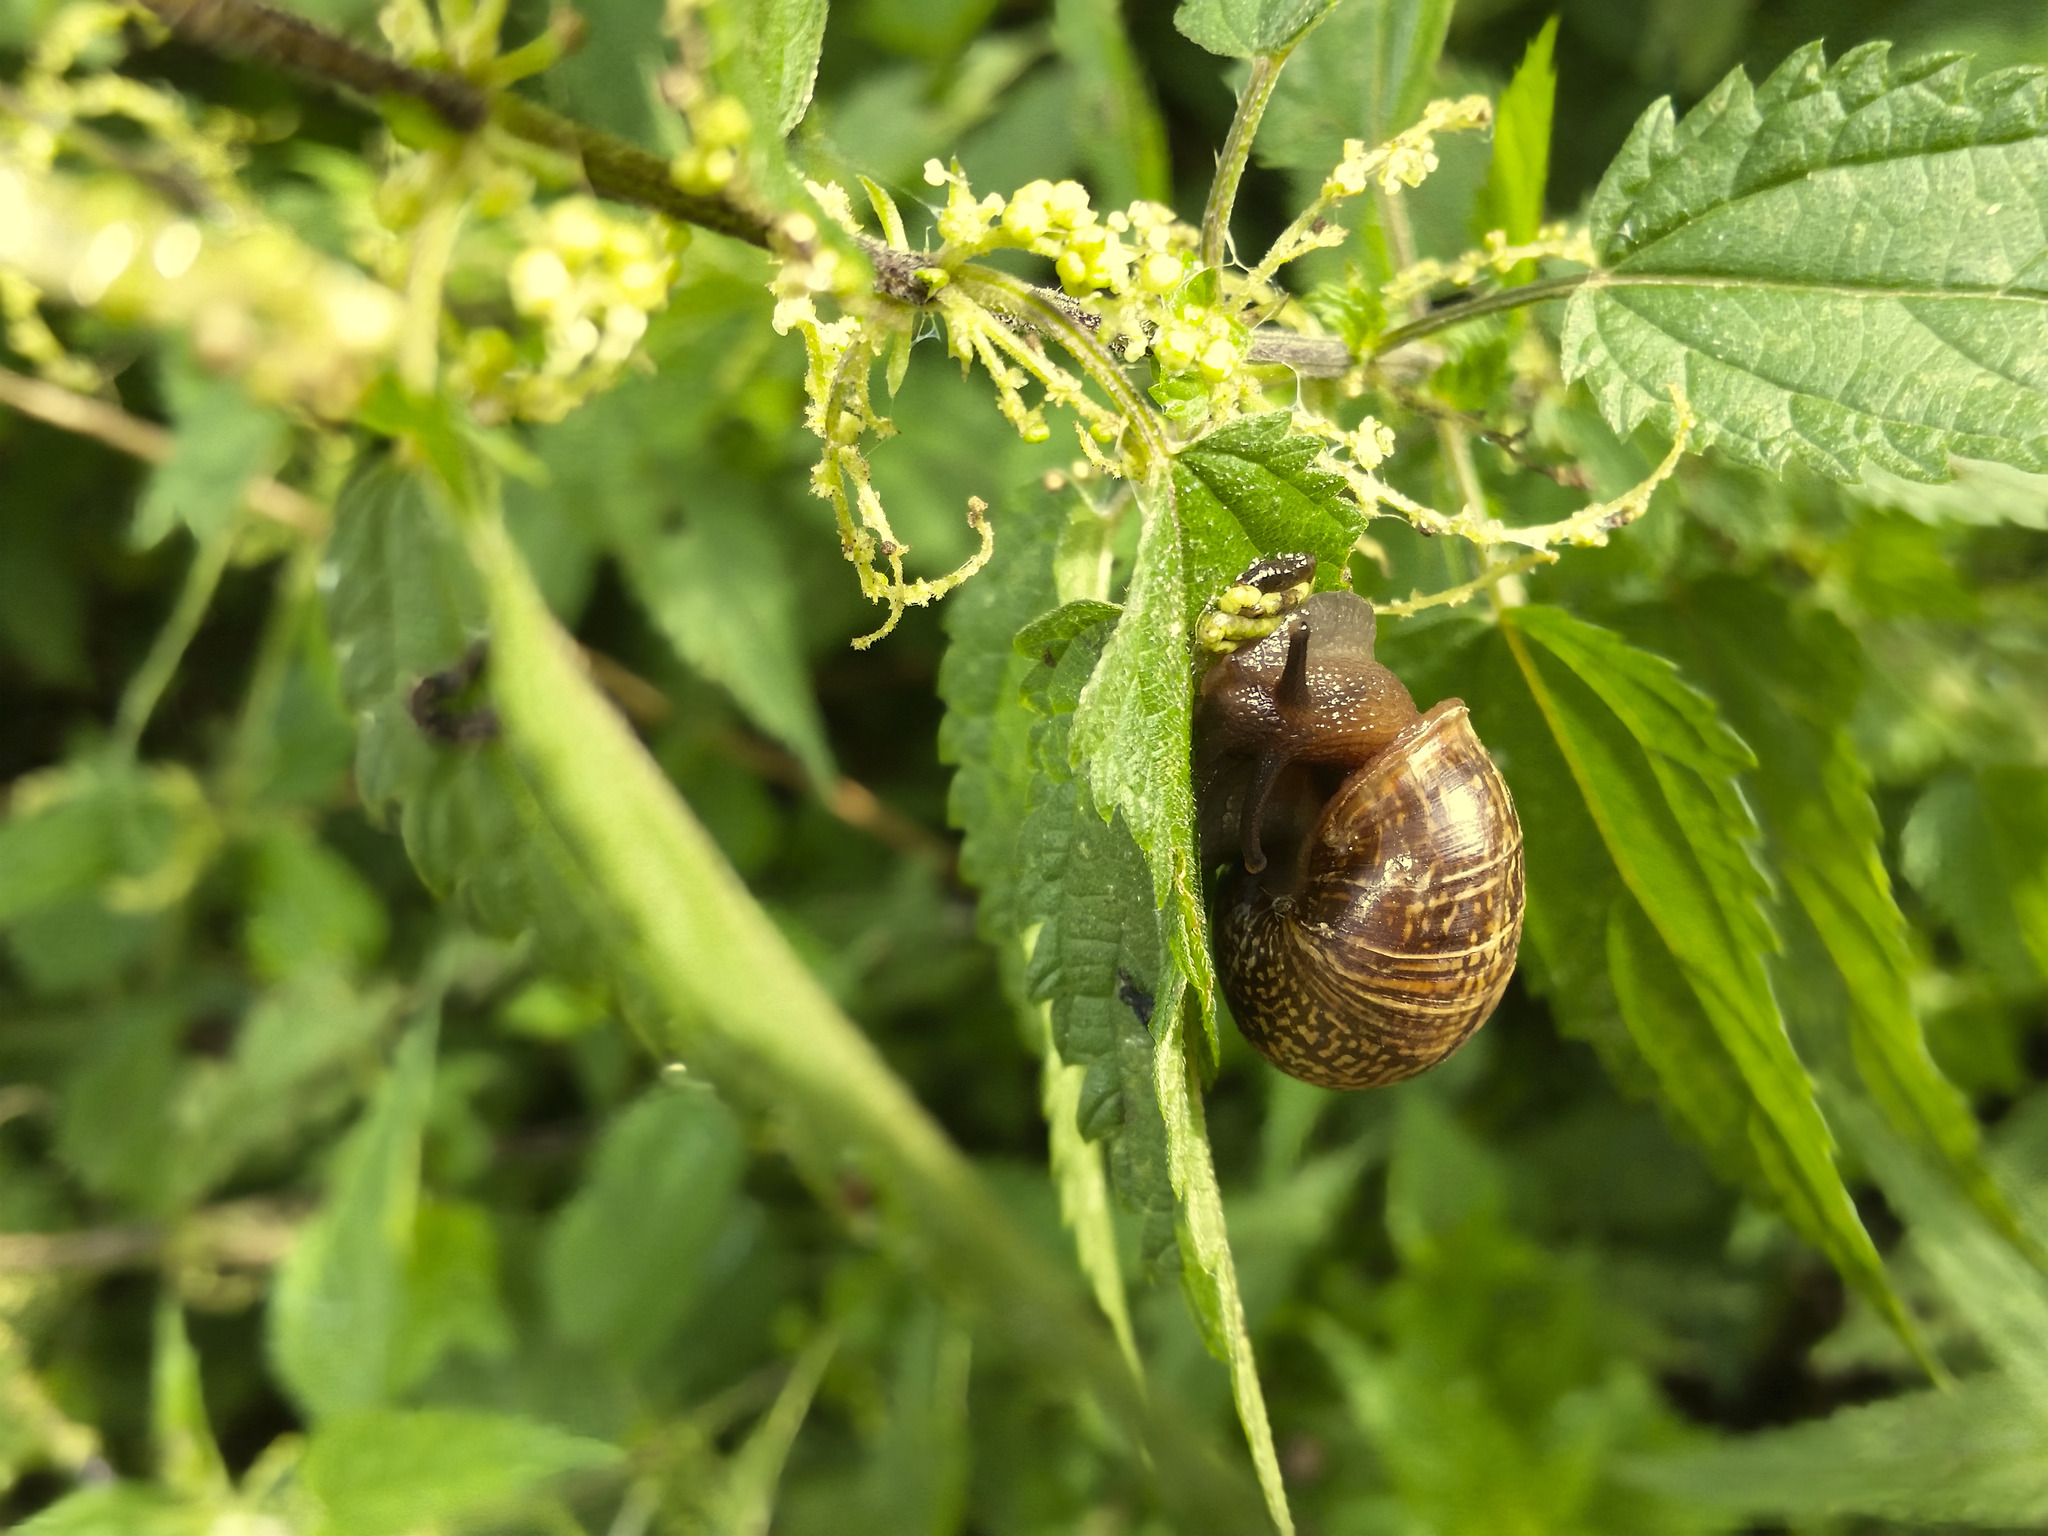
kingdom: Animalia
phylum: Mollusca
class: Gastropoda
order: Stylommatophora
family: Helicidae
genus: Arianta
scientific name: Arianta arbustorum
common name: Copse snail
